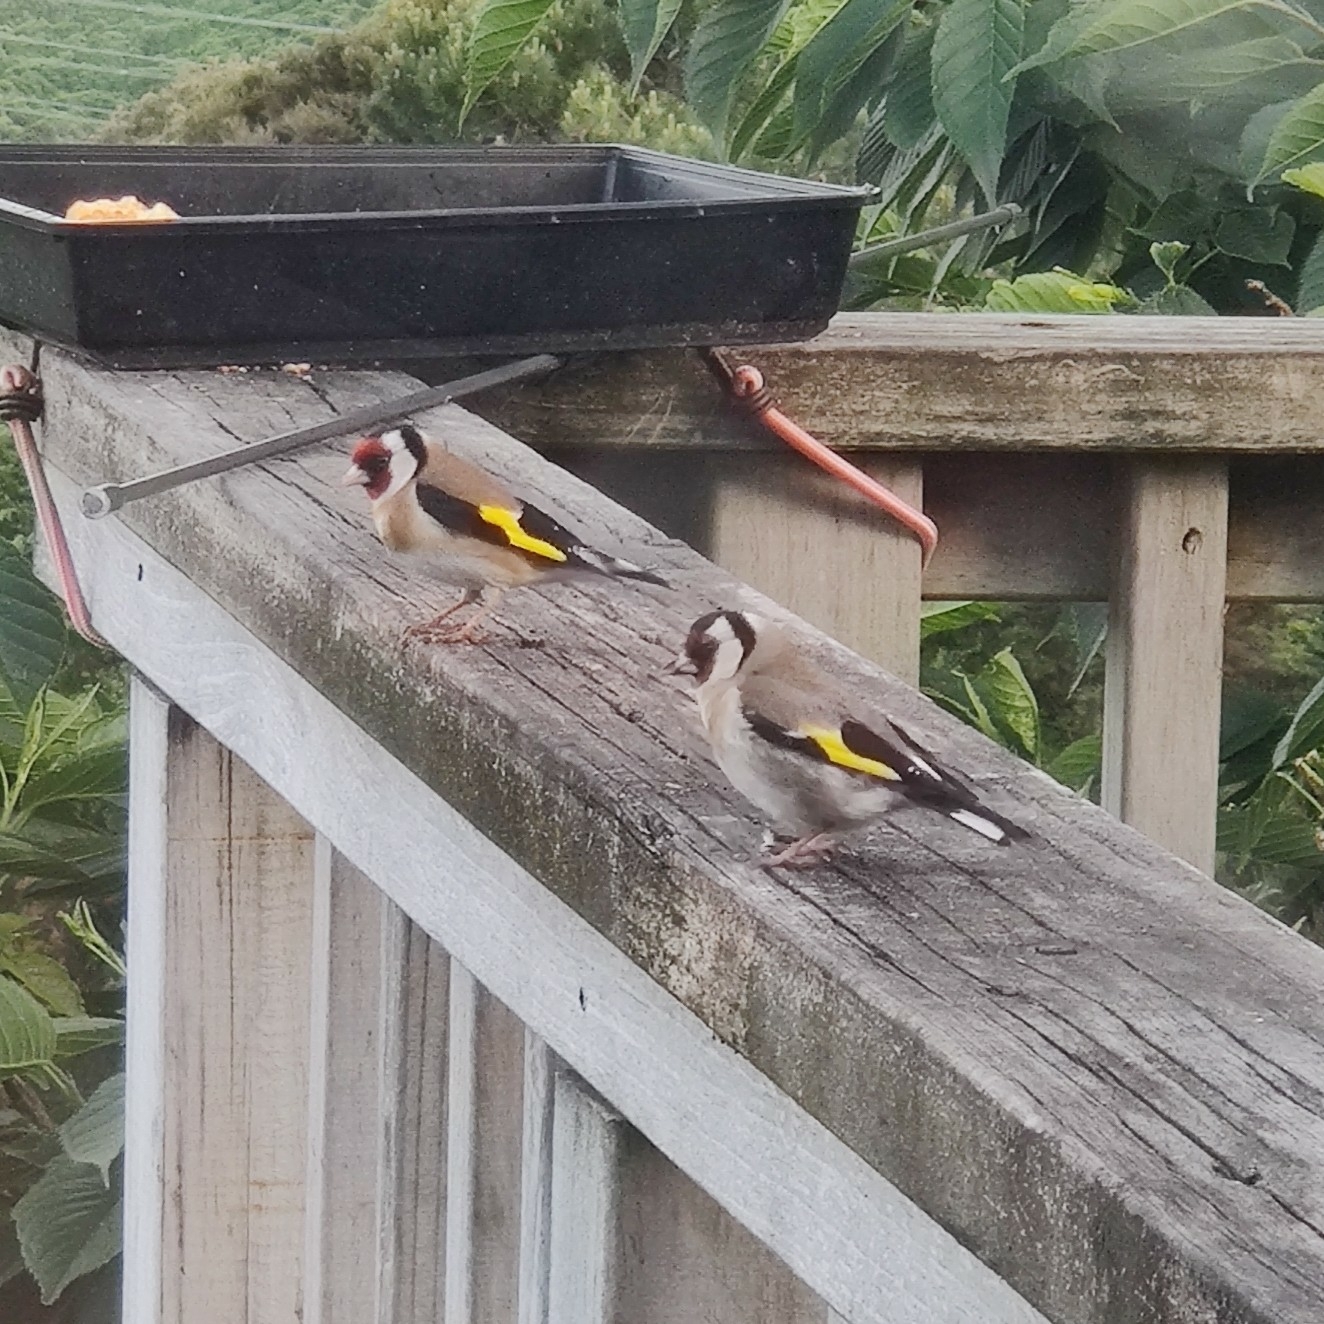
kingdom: Animalia
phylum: Chordata
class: Aves
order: Passeriformes
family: Fringillidae
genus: Carduelis
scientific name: Carduelis carduelis
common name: European goldfinch
